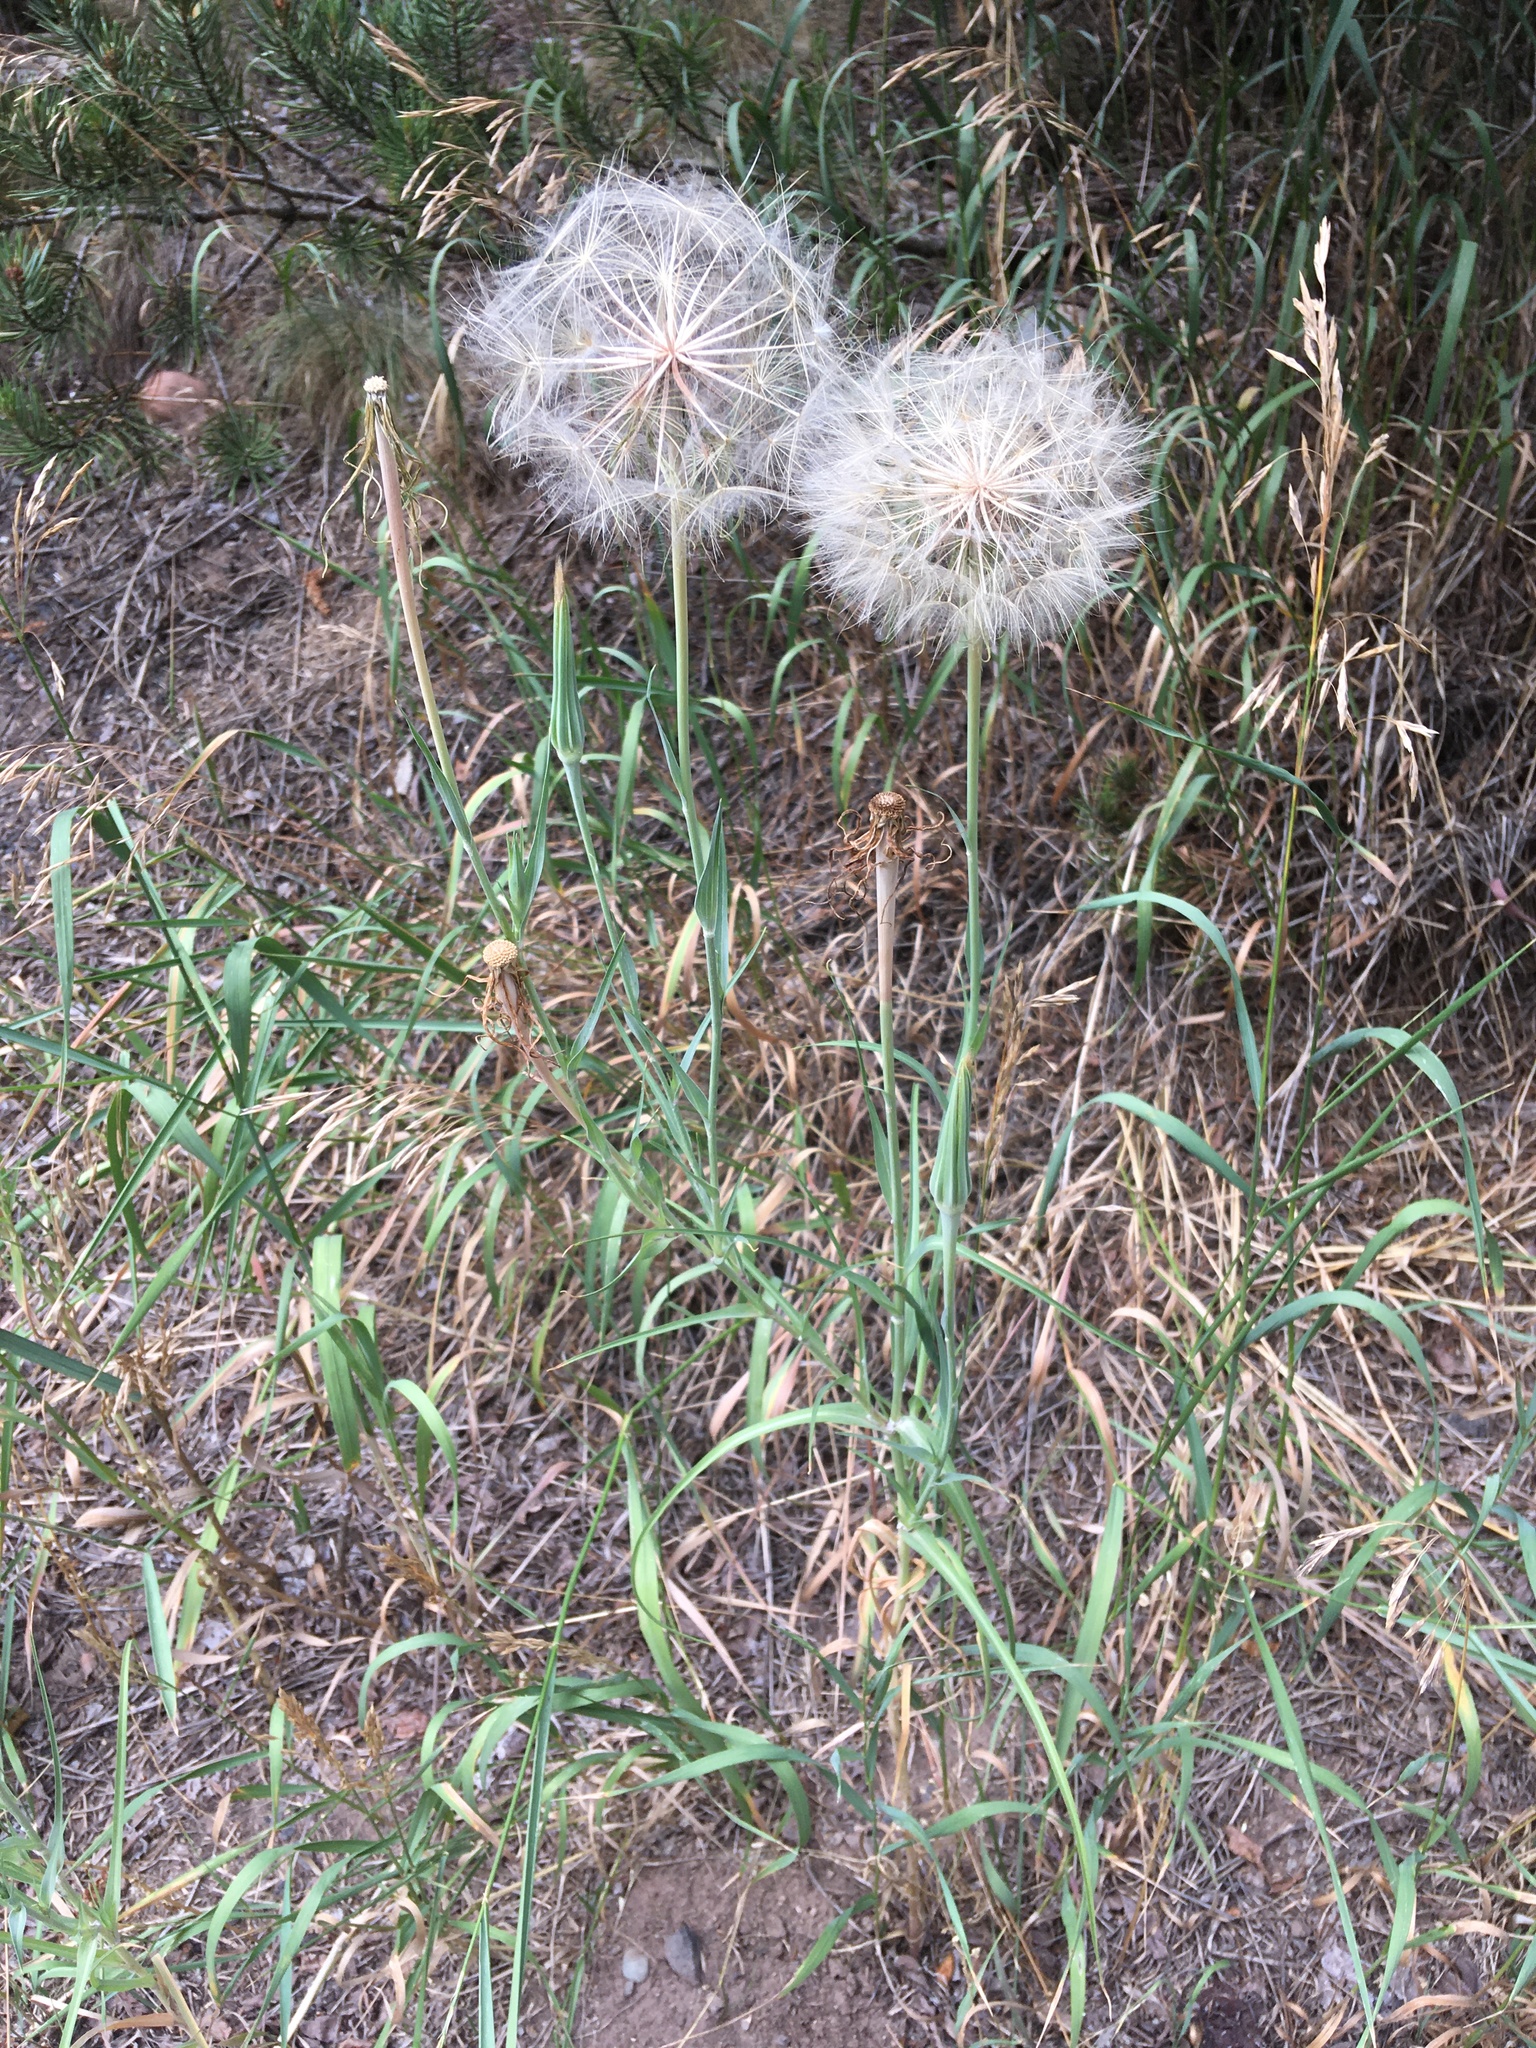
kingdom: Plantae
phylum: Tracheophyta
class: Magnoliopsida
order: Asterales
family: Asteraceae
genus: Tragopogon
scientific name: Tragopogon dubius
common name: Yellow salsify
